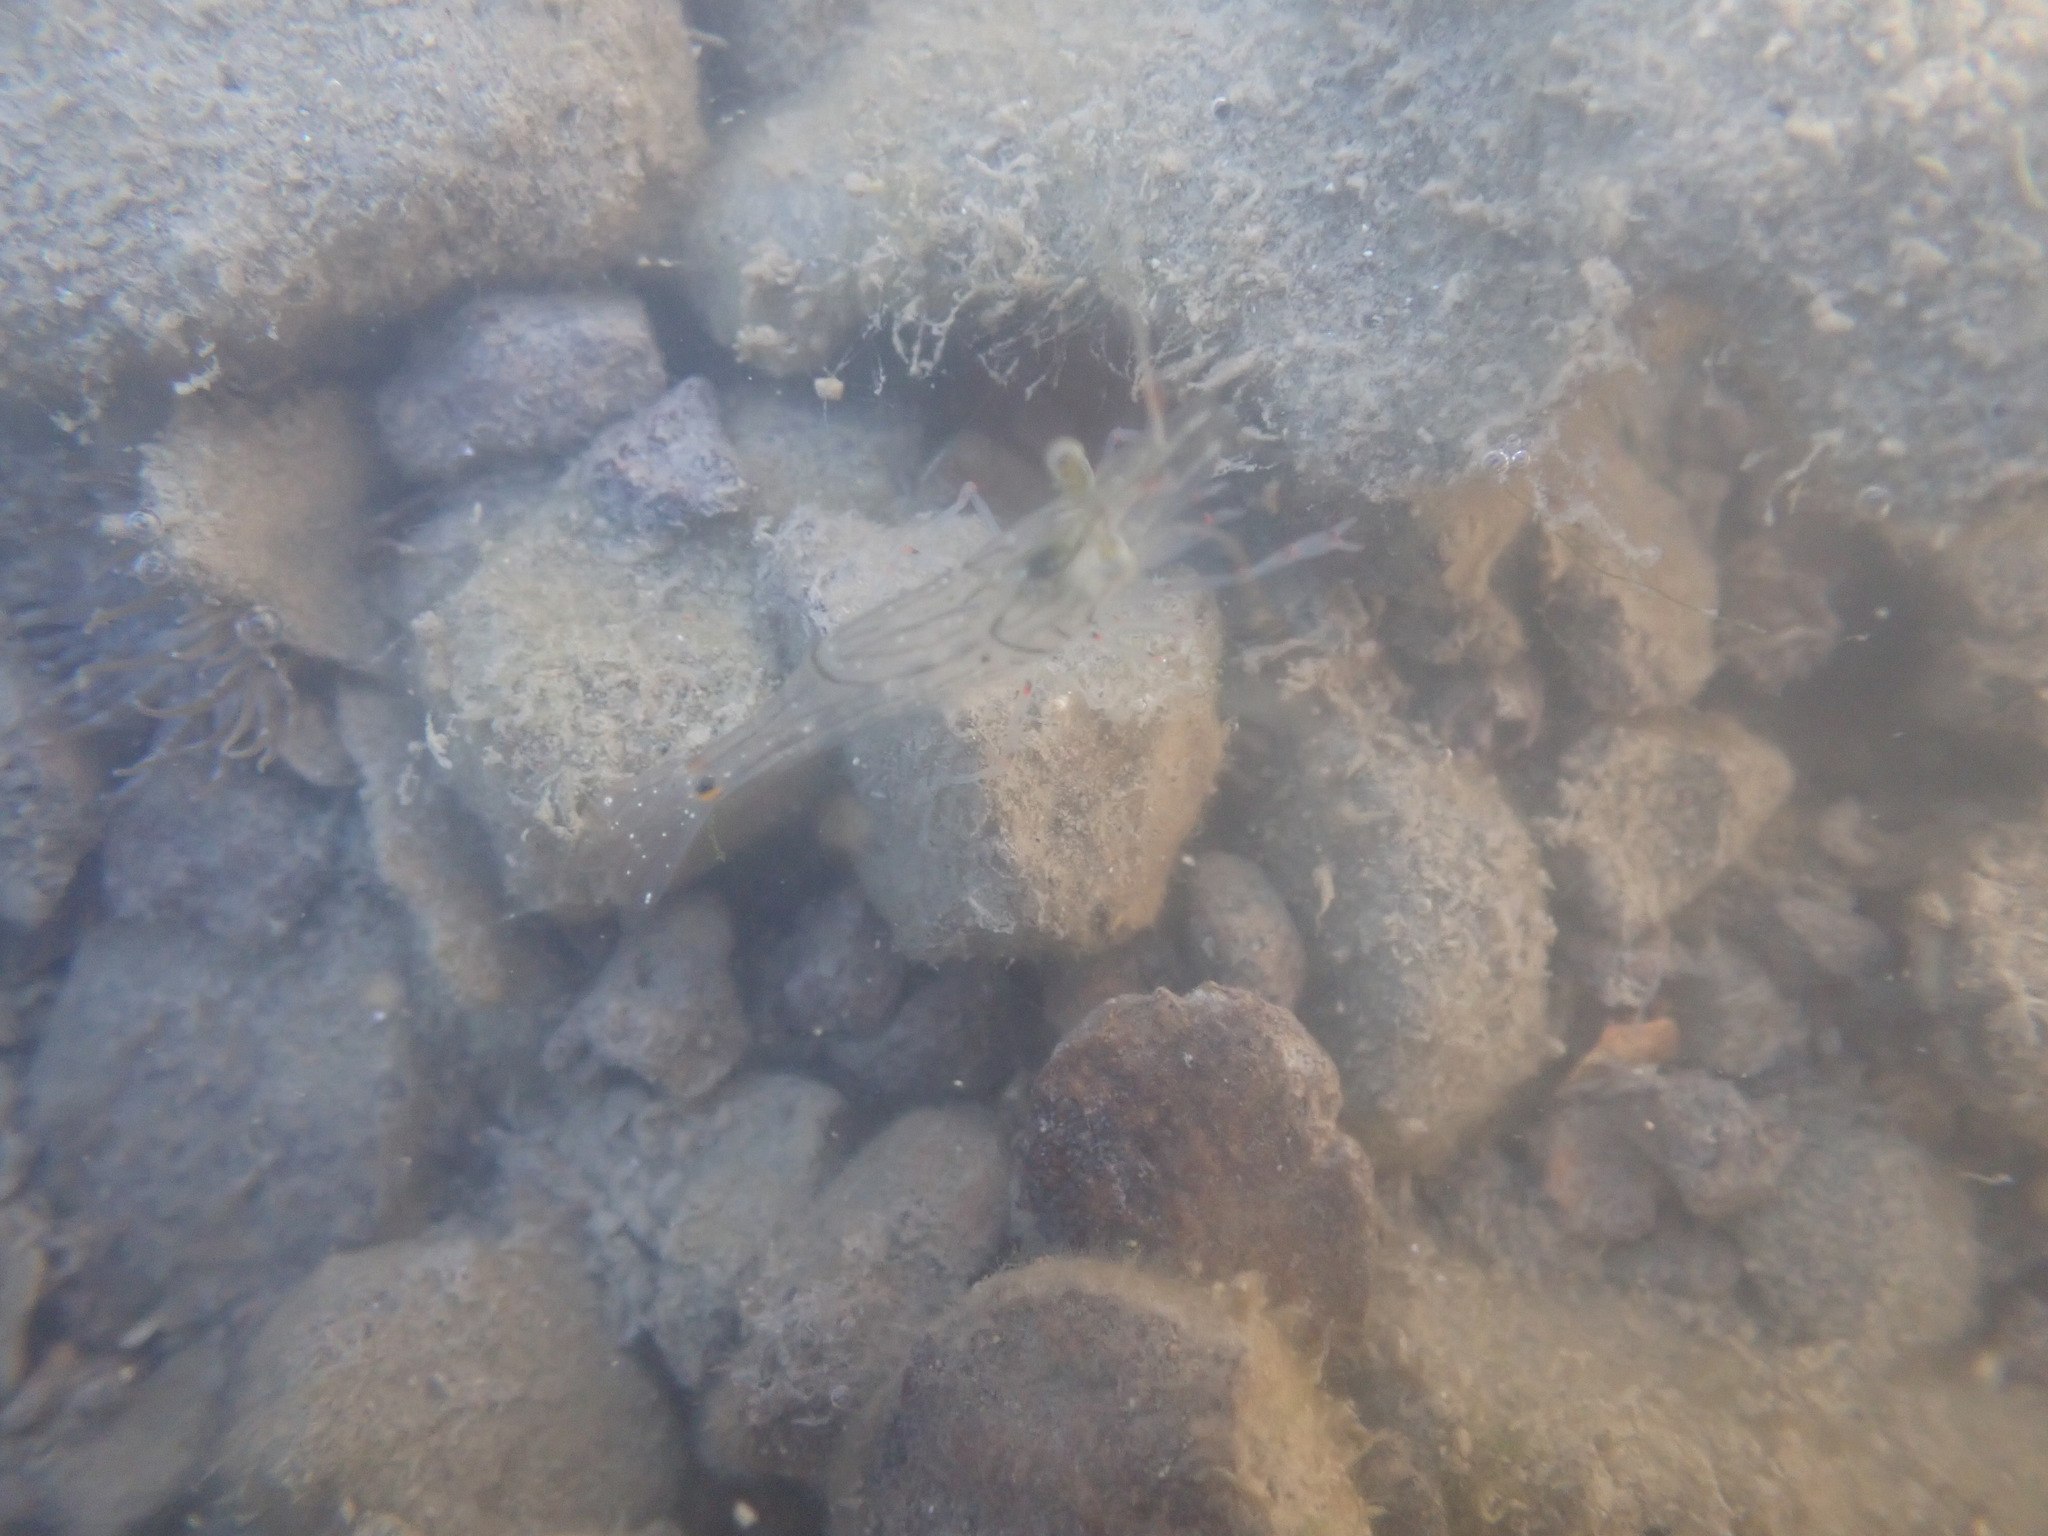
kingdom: Animalia
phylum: Arthropoda
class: Malacostraca
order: Decapoda
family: Palaemonidae
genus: Palaemon
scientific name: Palaemon affinis
